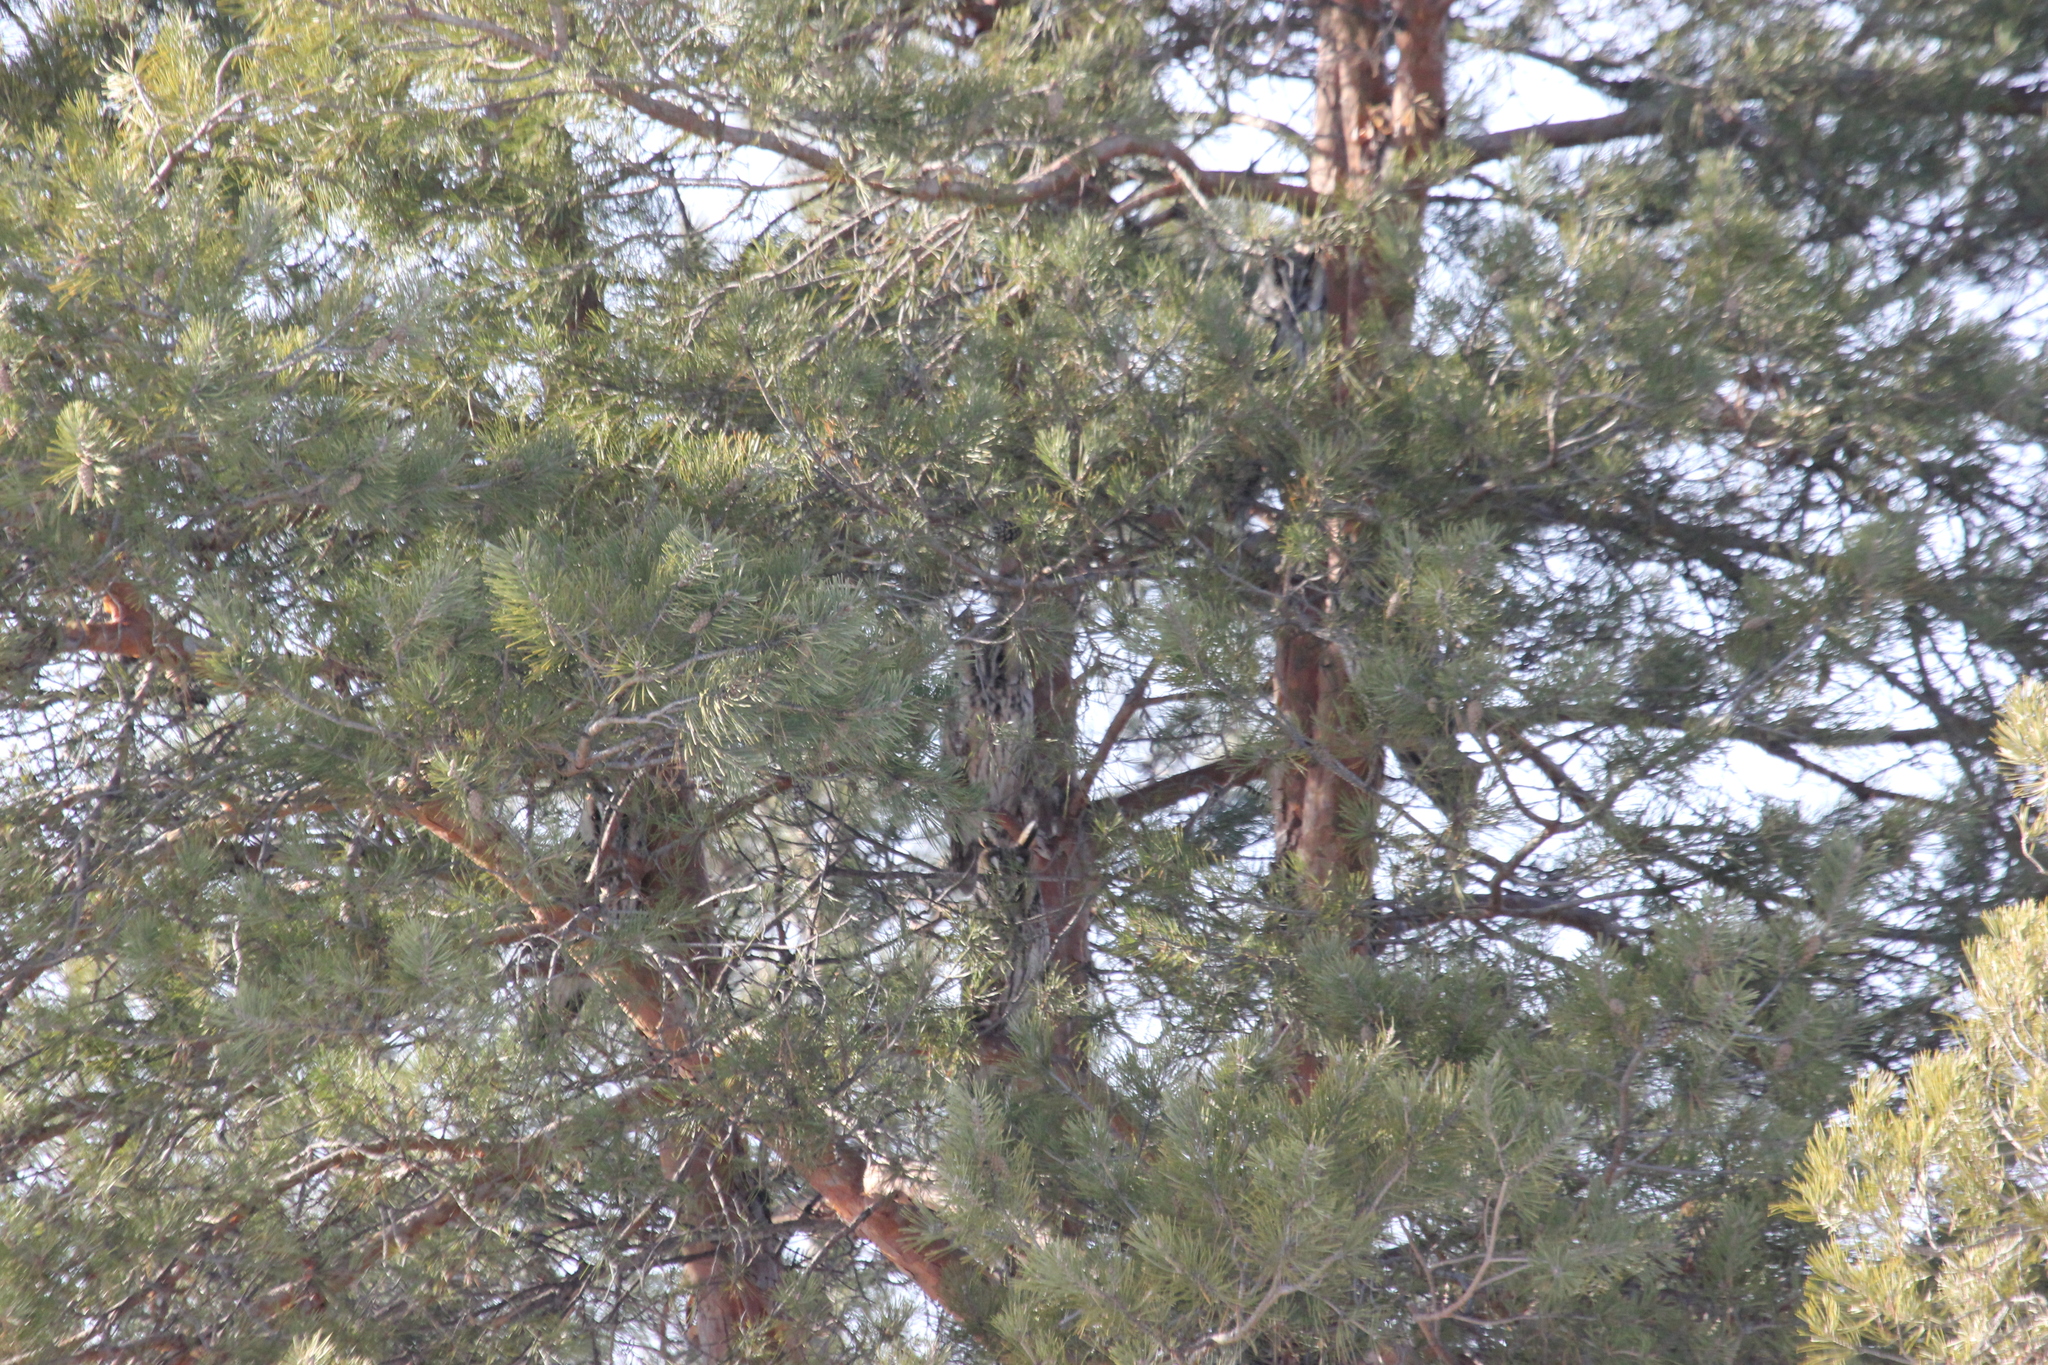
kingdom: Animalia
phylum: Chordata
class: Aves
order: Strigiformes
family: Strigidae
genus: Asio
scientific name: Asio otus
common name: Long-eared owl
